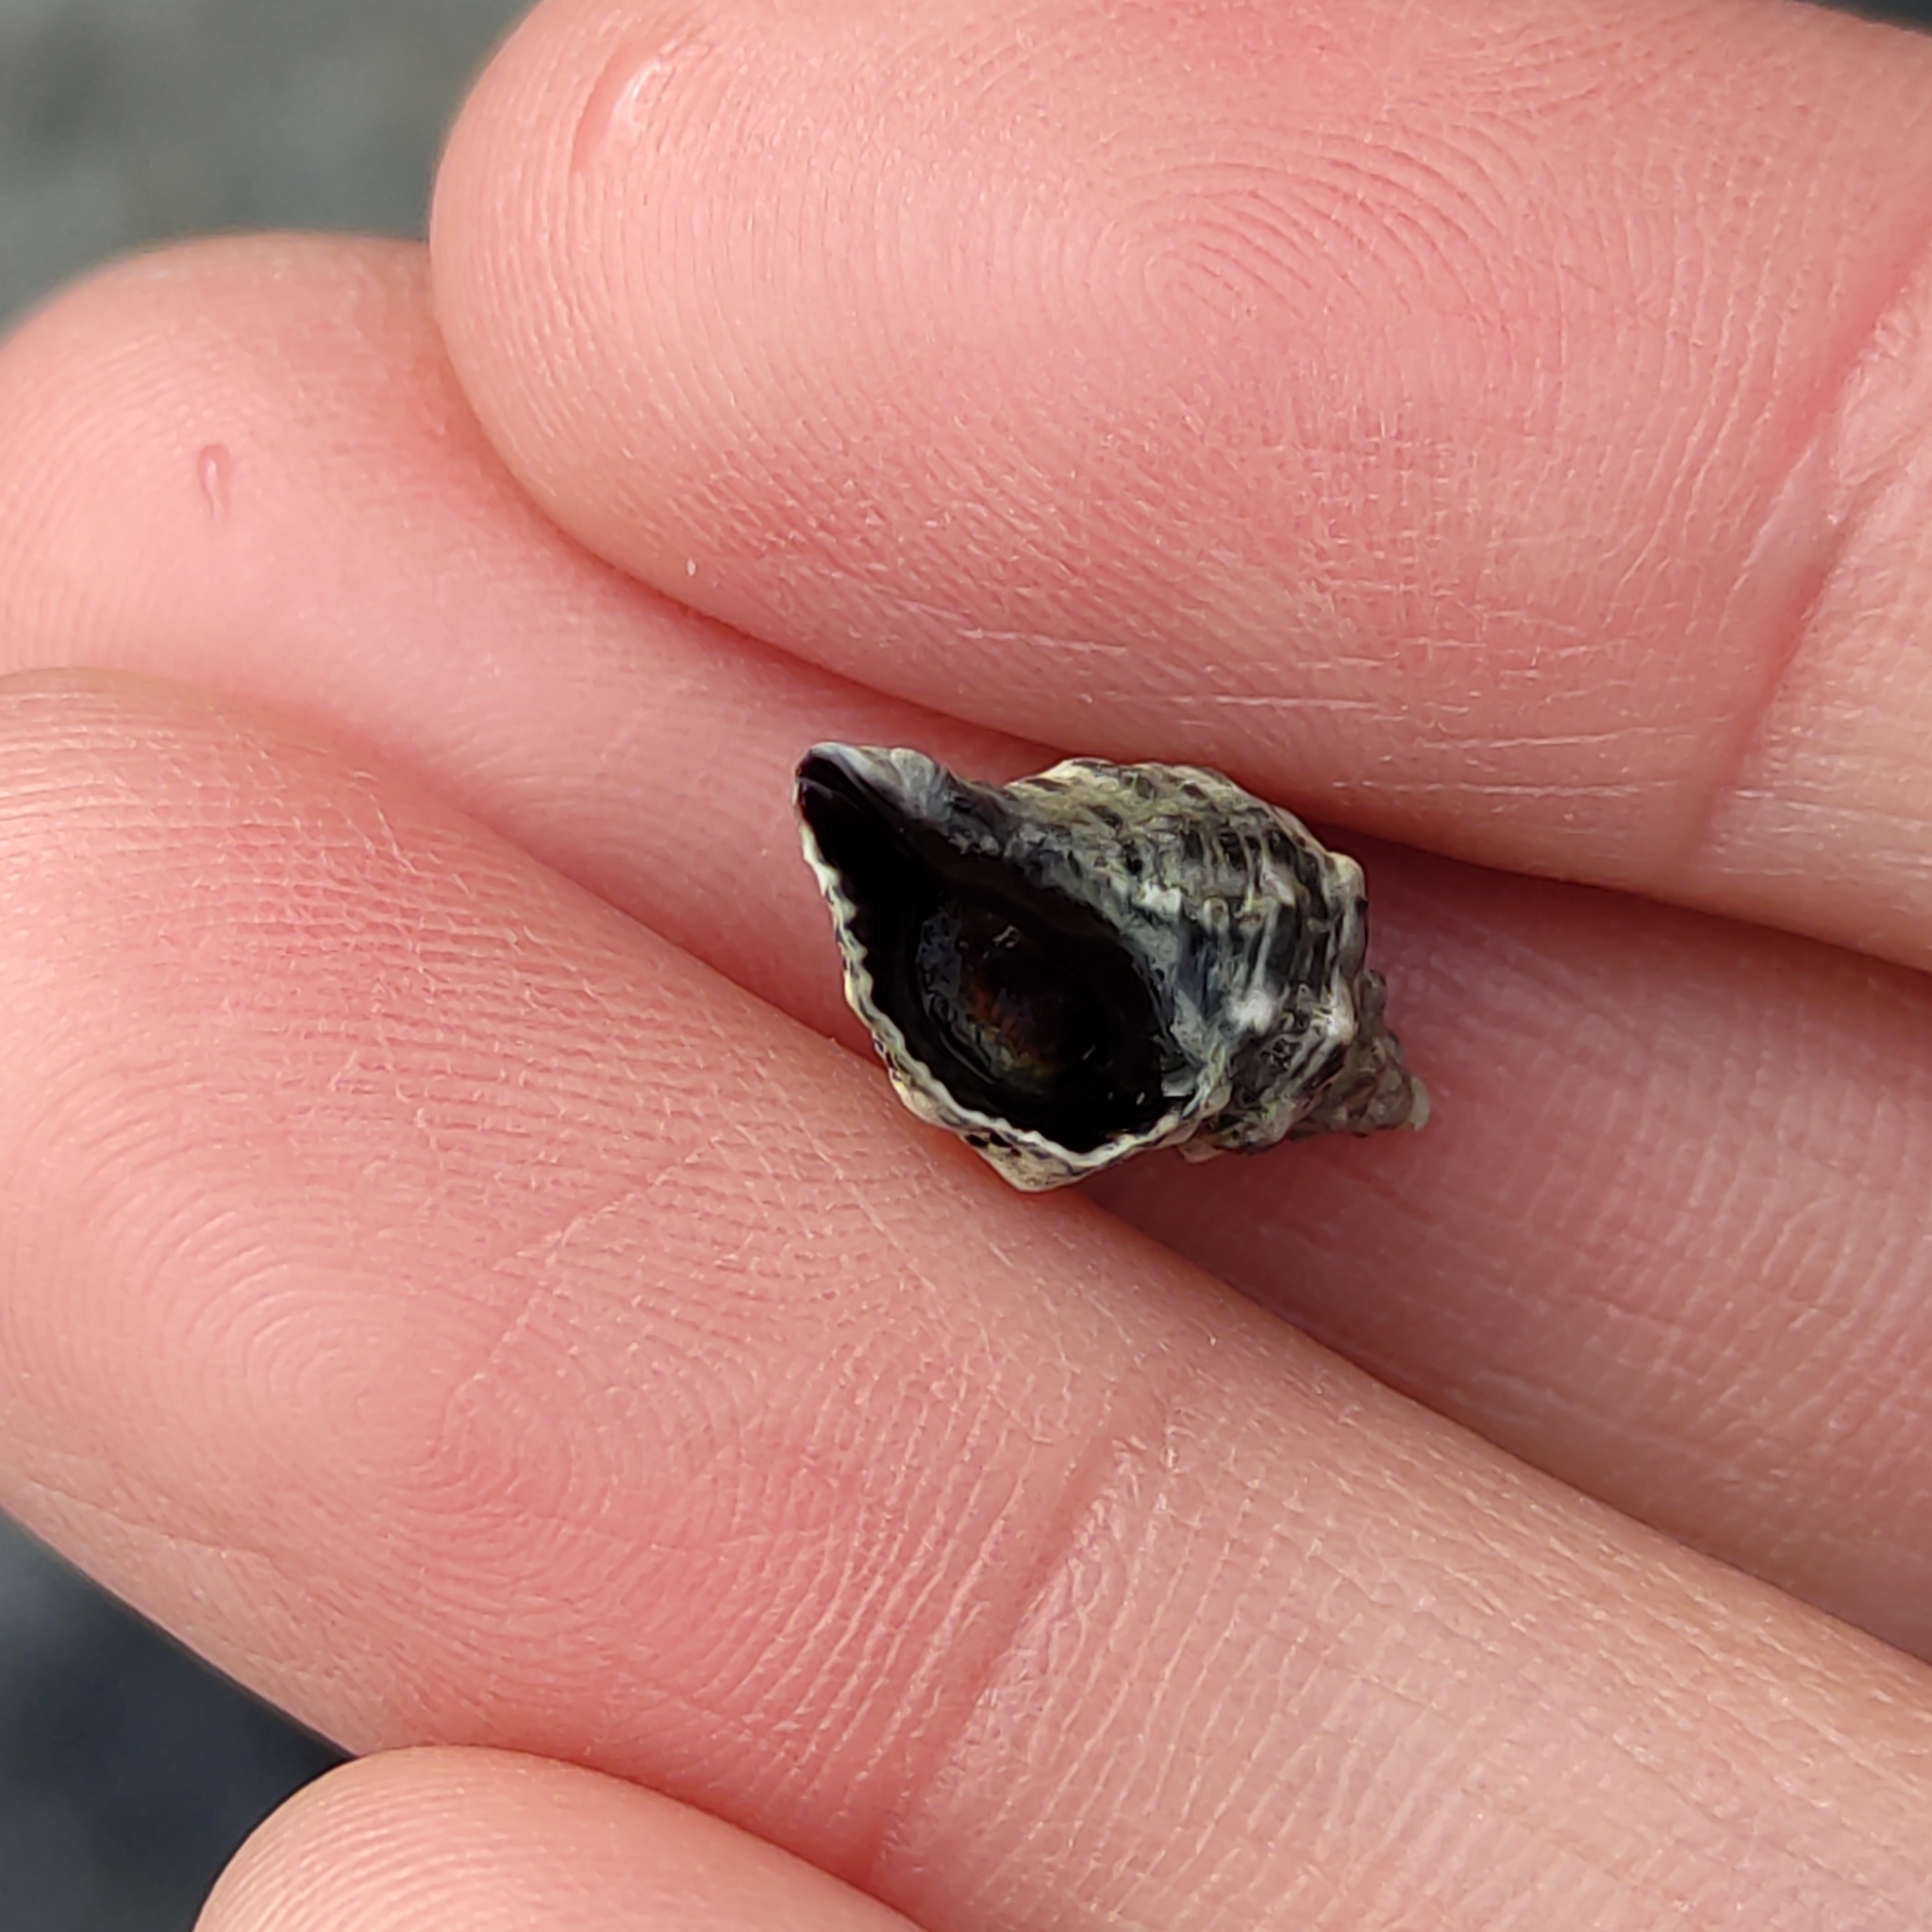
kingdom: Animalia
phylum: Mollusca
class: Gastropoda
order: Neogastropoda
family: Muricidae
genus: Haustrum
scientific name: Haustrum scobina
